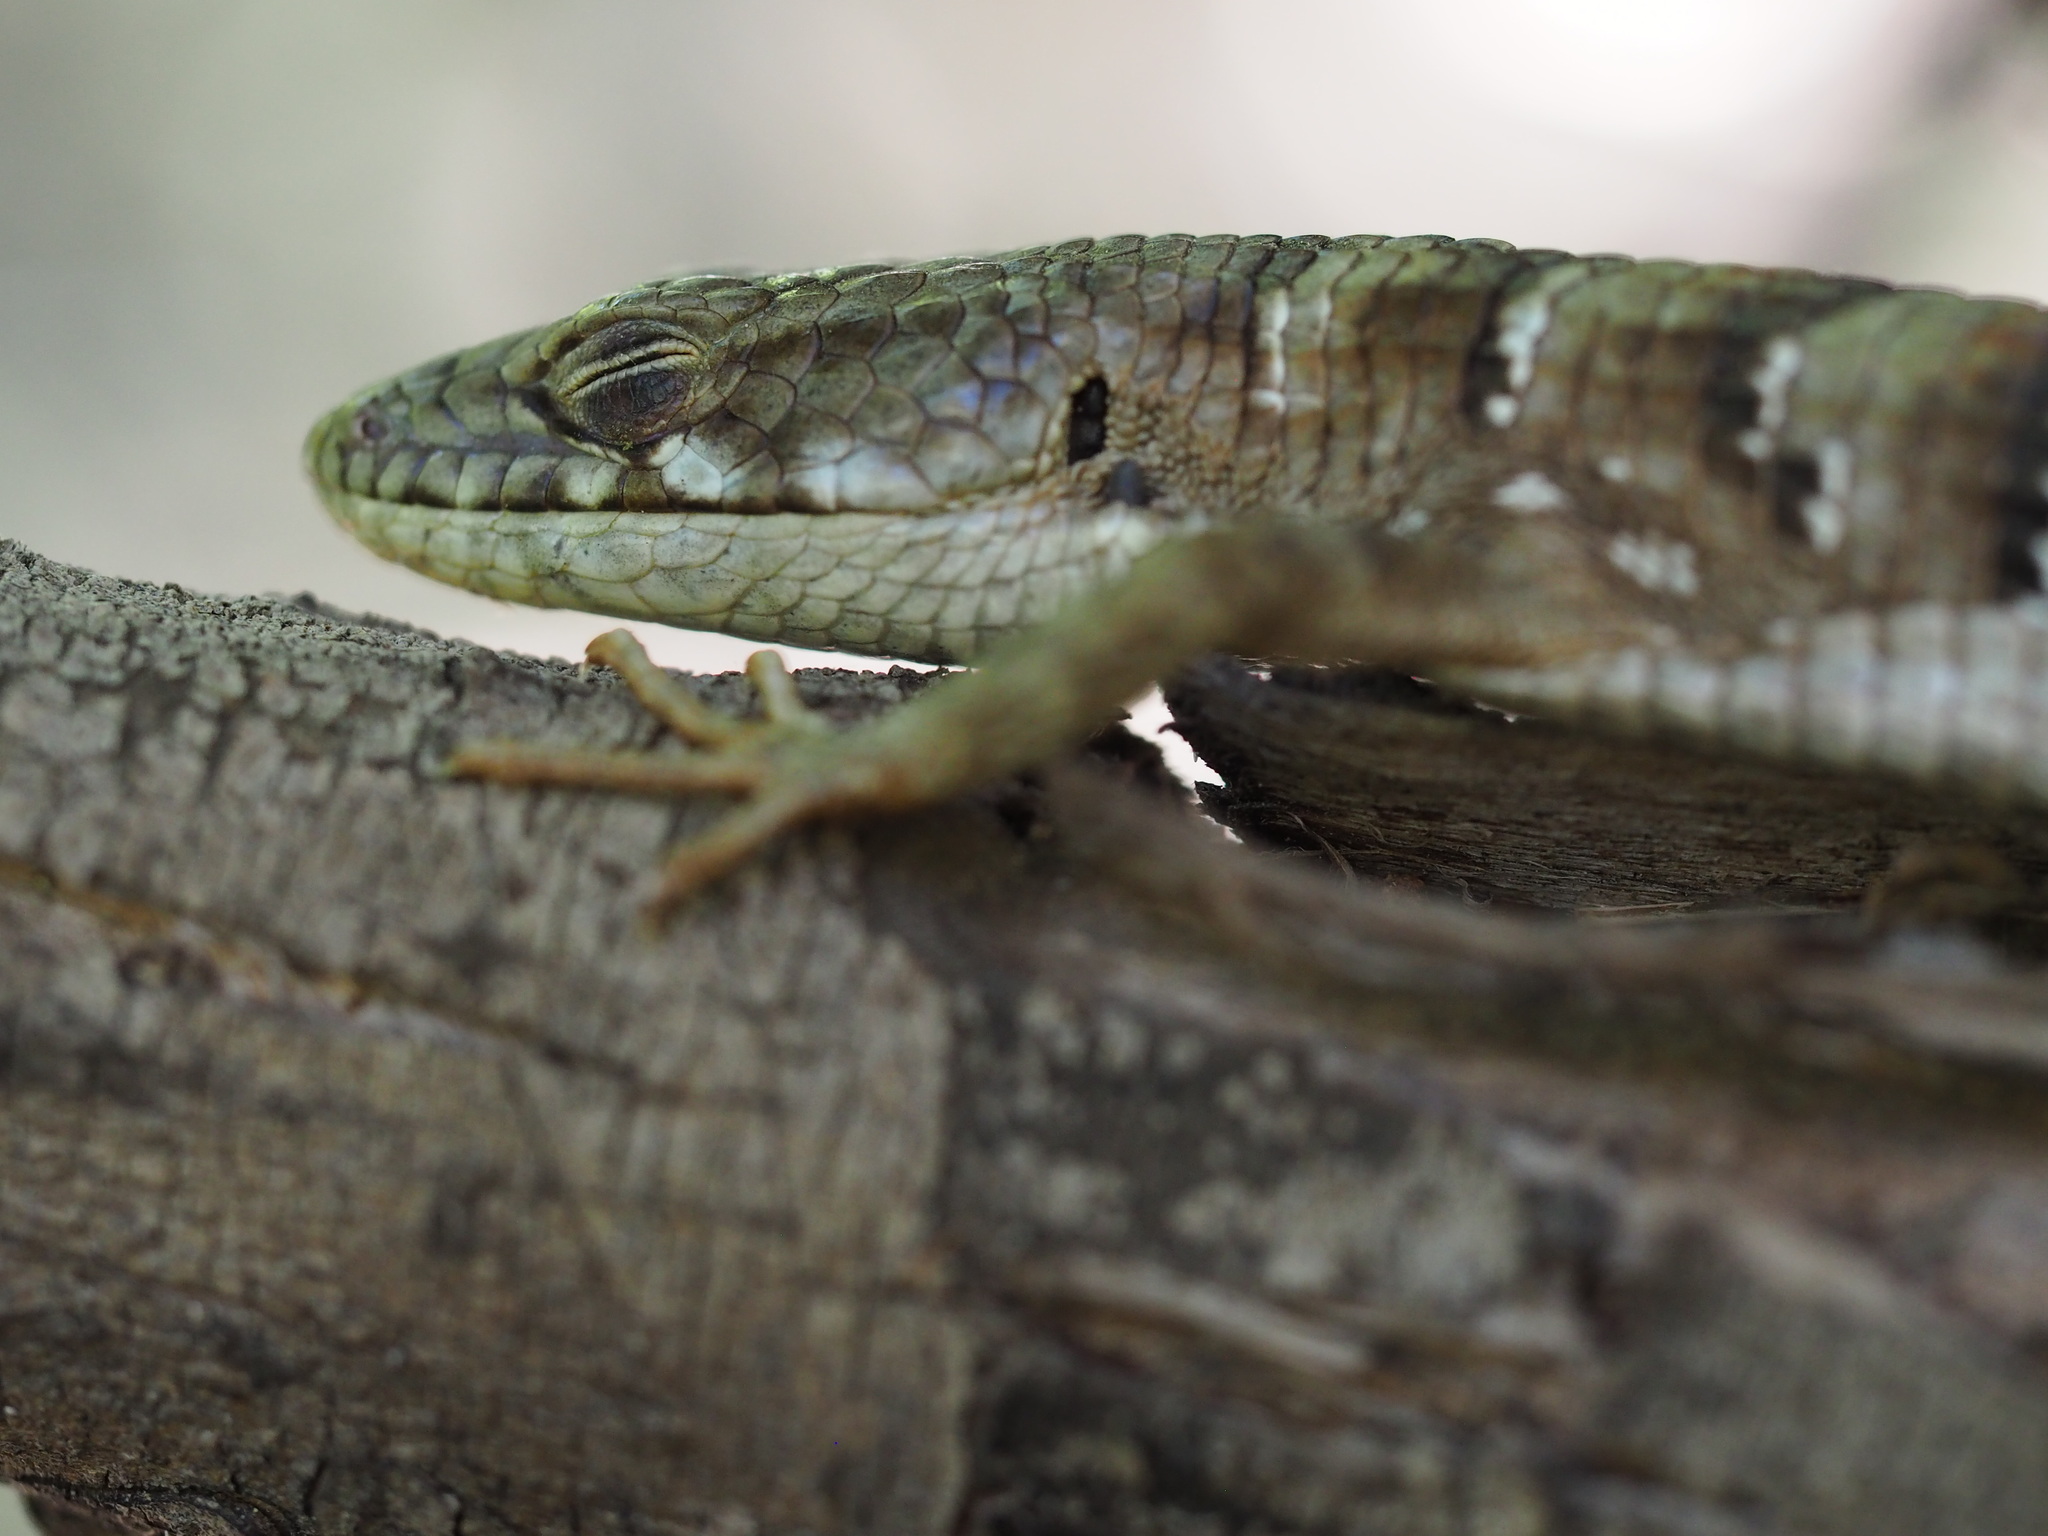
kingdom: Animalia
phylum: Chordata
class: Squamata
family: Anguidae
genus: Elgaria
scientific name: Elgaria multicarinata
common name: Southern alligator lizard
